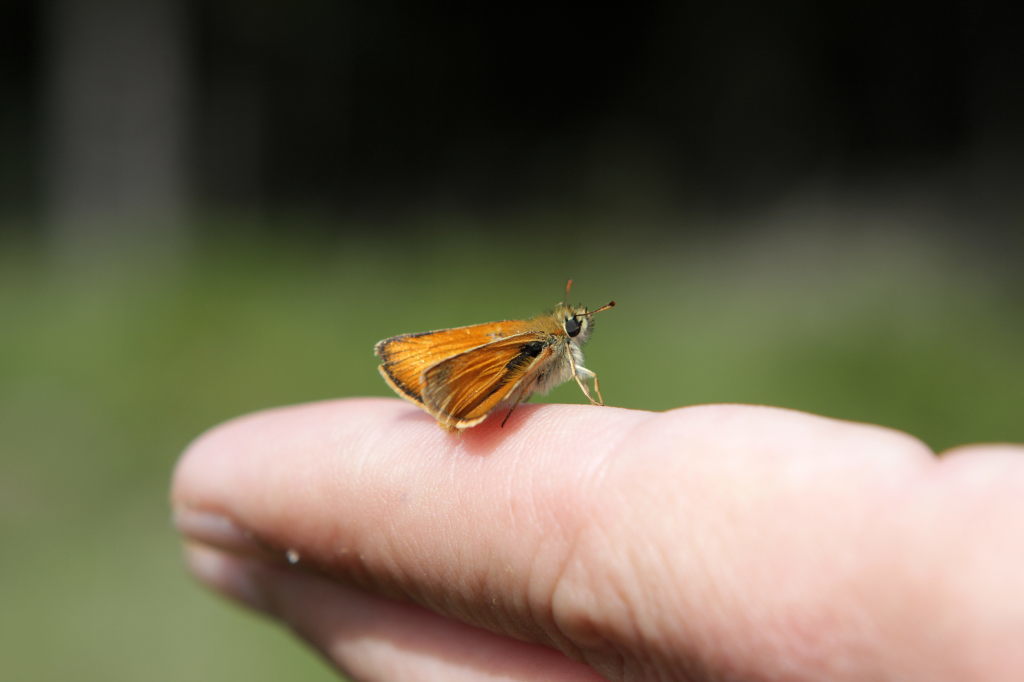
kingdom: Animalia
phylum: Arthropoda
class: Insecta
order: Lepidoptera
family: Hesperiidae
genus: Thymelicus
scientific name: Thymelicus sylvestris
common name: Small skipper
